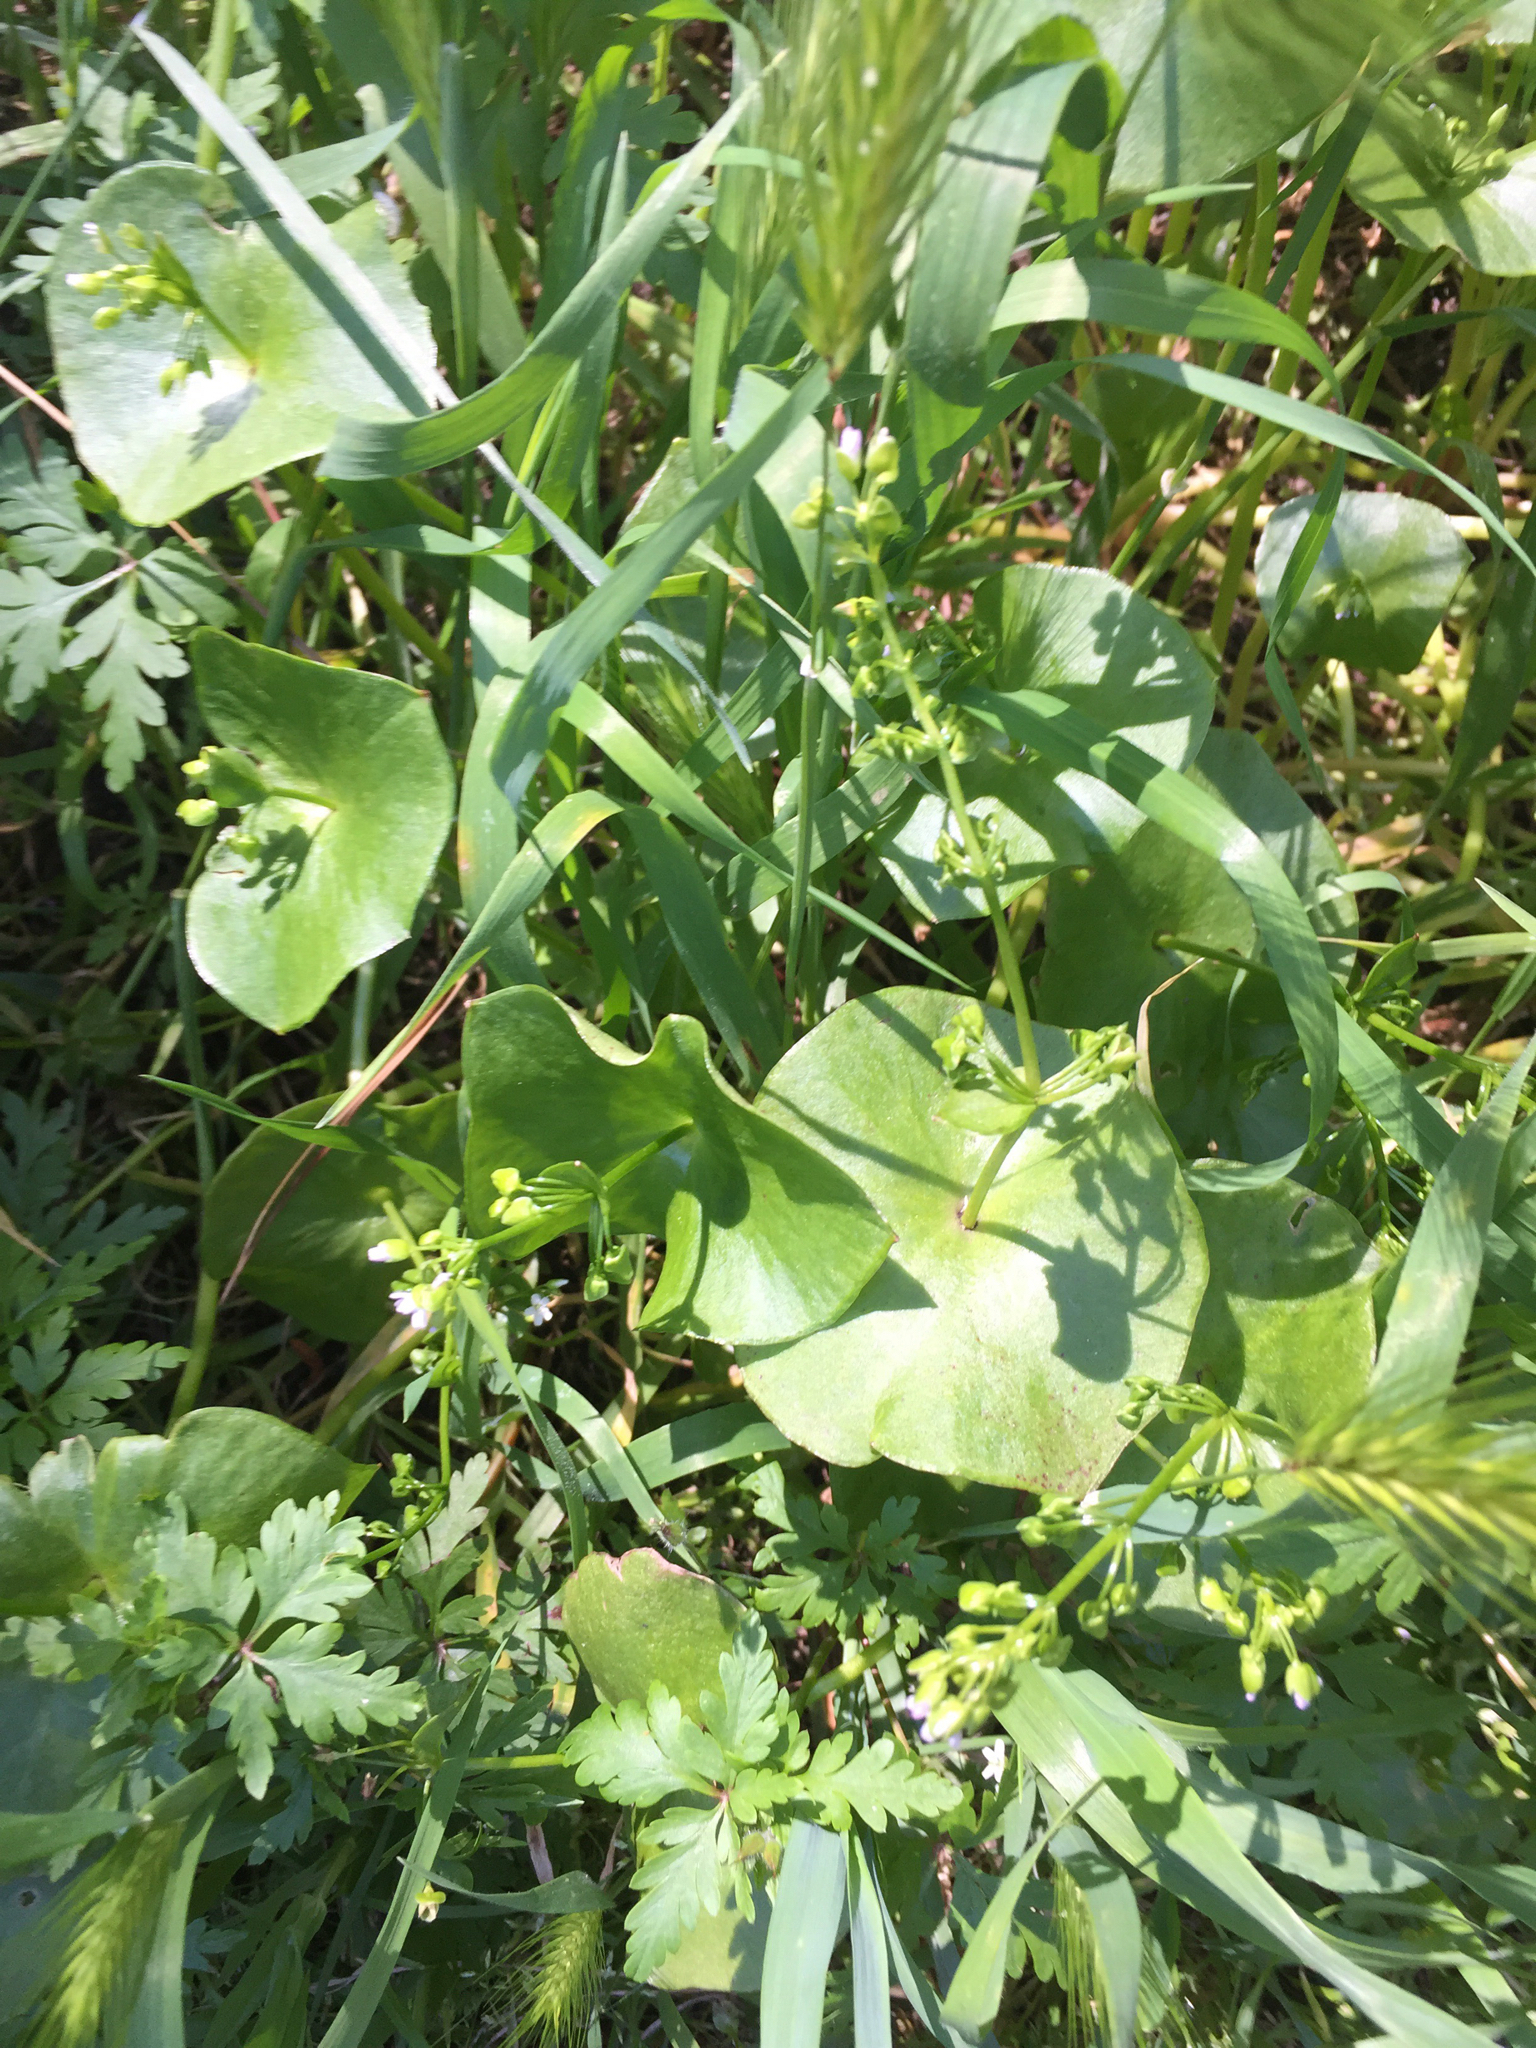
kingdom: Plantae
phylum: Tracheophyta
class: Magnoliopsida
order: Caryophyllales
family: Montiaceae
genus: Claytonia
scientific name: Claytonia perfoliata
